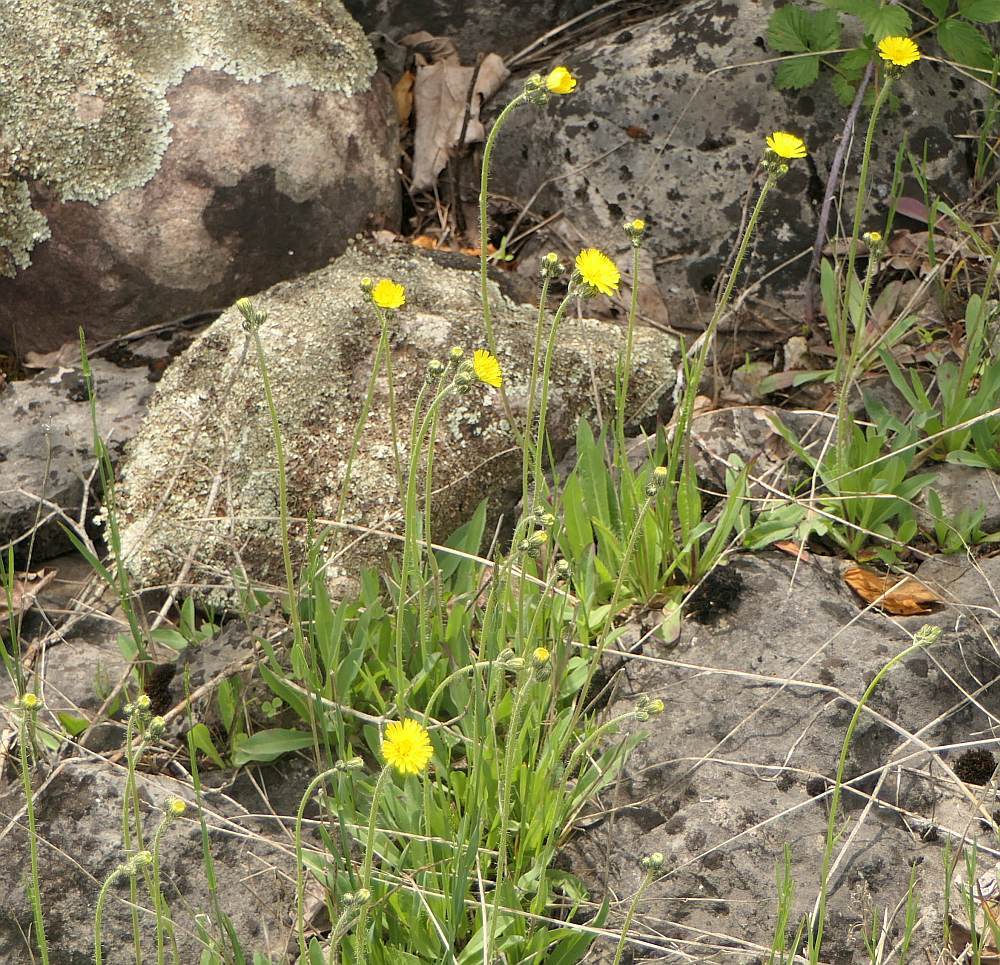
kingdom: Plantae
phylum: Tracheophyta
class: Magnoliopsida
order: Asterales
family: Asteraceae
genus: Pilosella
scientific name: Pilosella caespitosa
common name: Yellow fox-and-cubs
